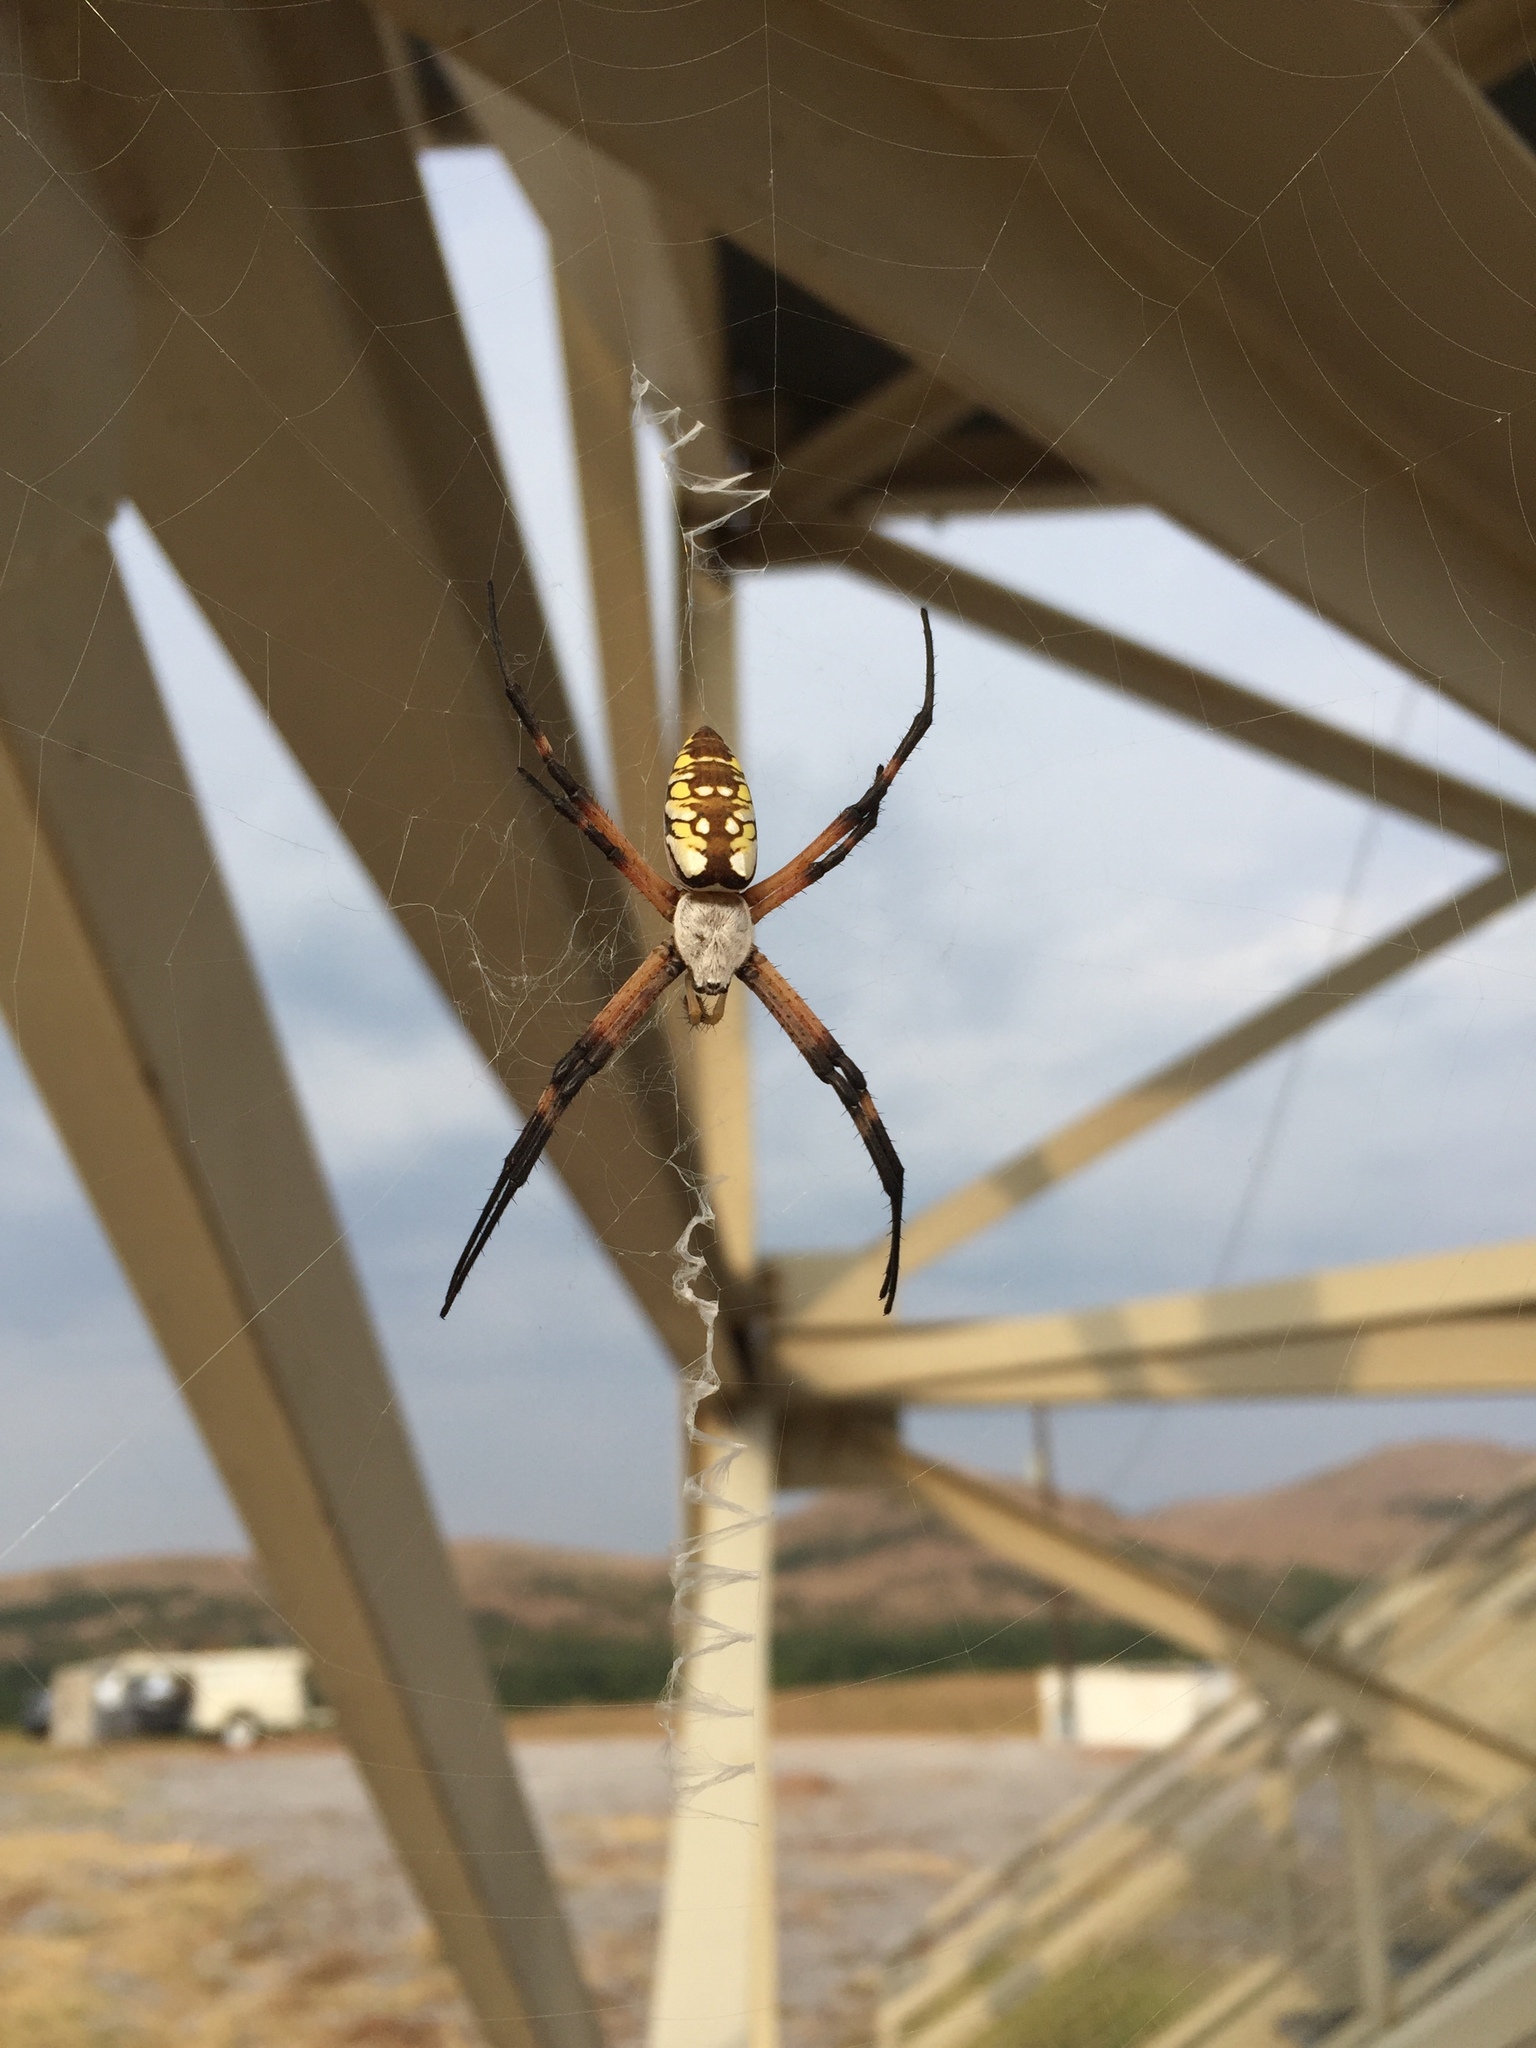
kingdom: Animalia
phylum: Arthropoda
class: Arachnida
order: Araneae
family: Araneidae
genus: Argiope
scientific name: Argiope aurantia
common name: Orb weavers
